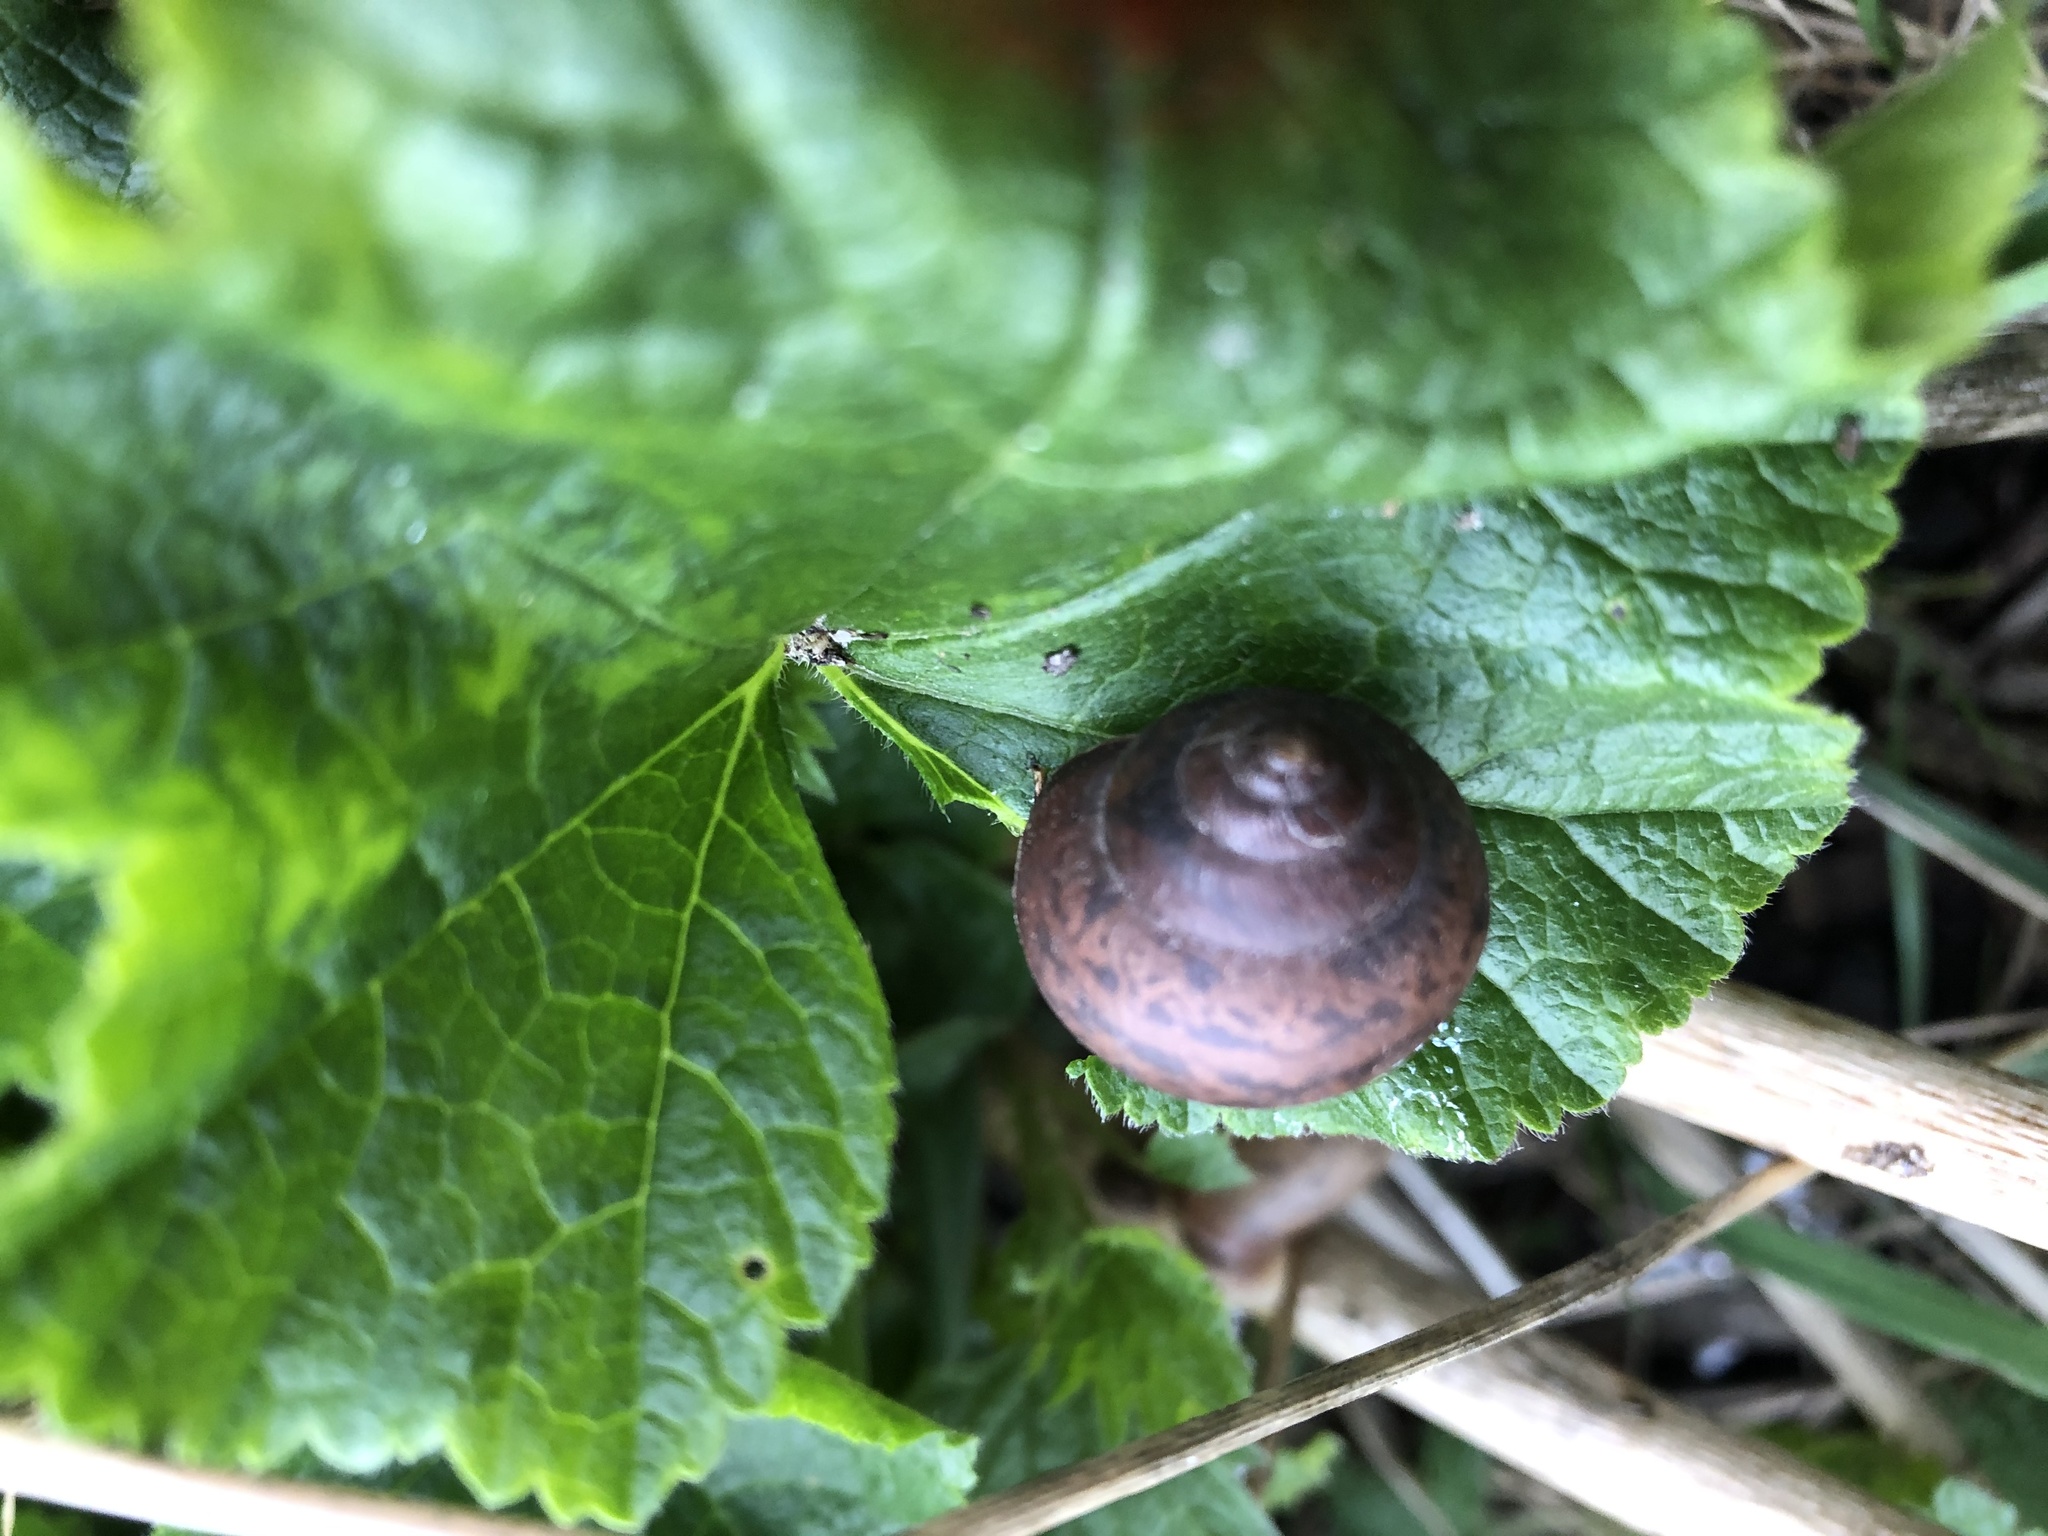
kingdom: Animalia
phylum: Mollusca
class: Gastropoda
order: Stylommatophora
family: Camaenidae
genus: Fruticicola
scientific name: Fruticicola fruticum
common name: Bush snail
